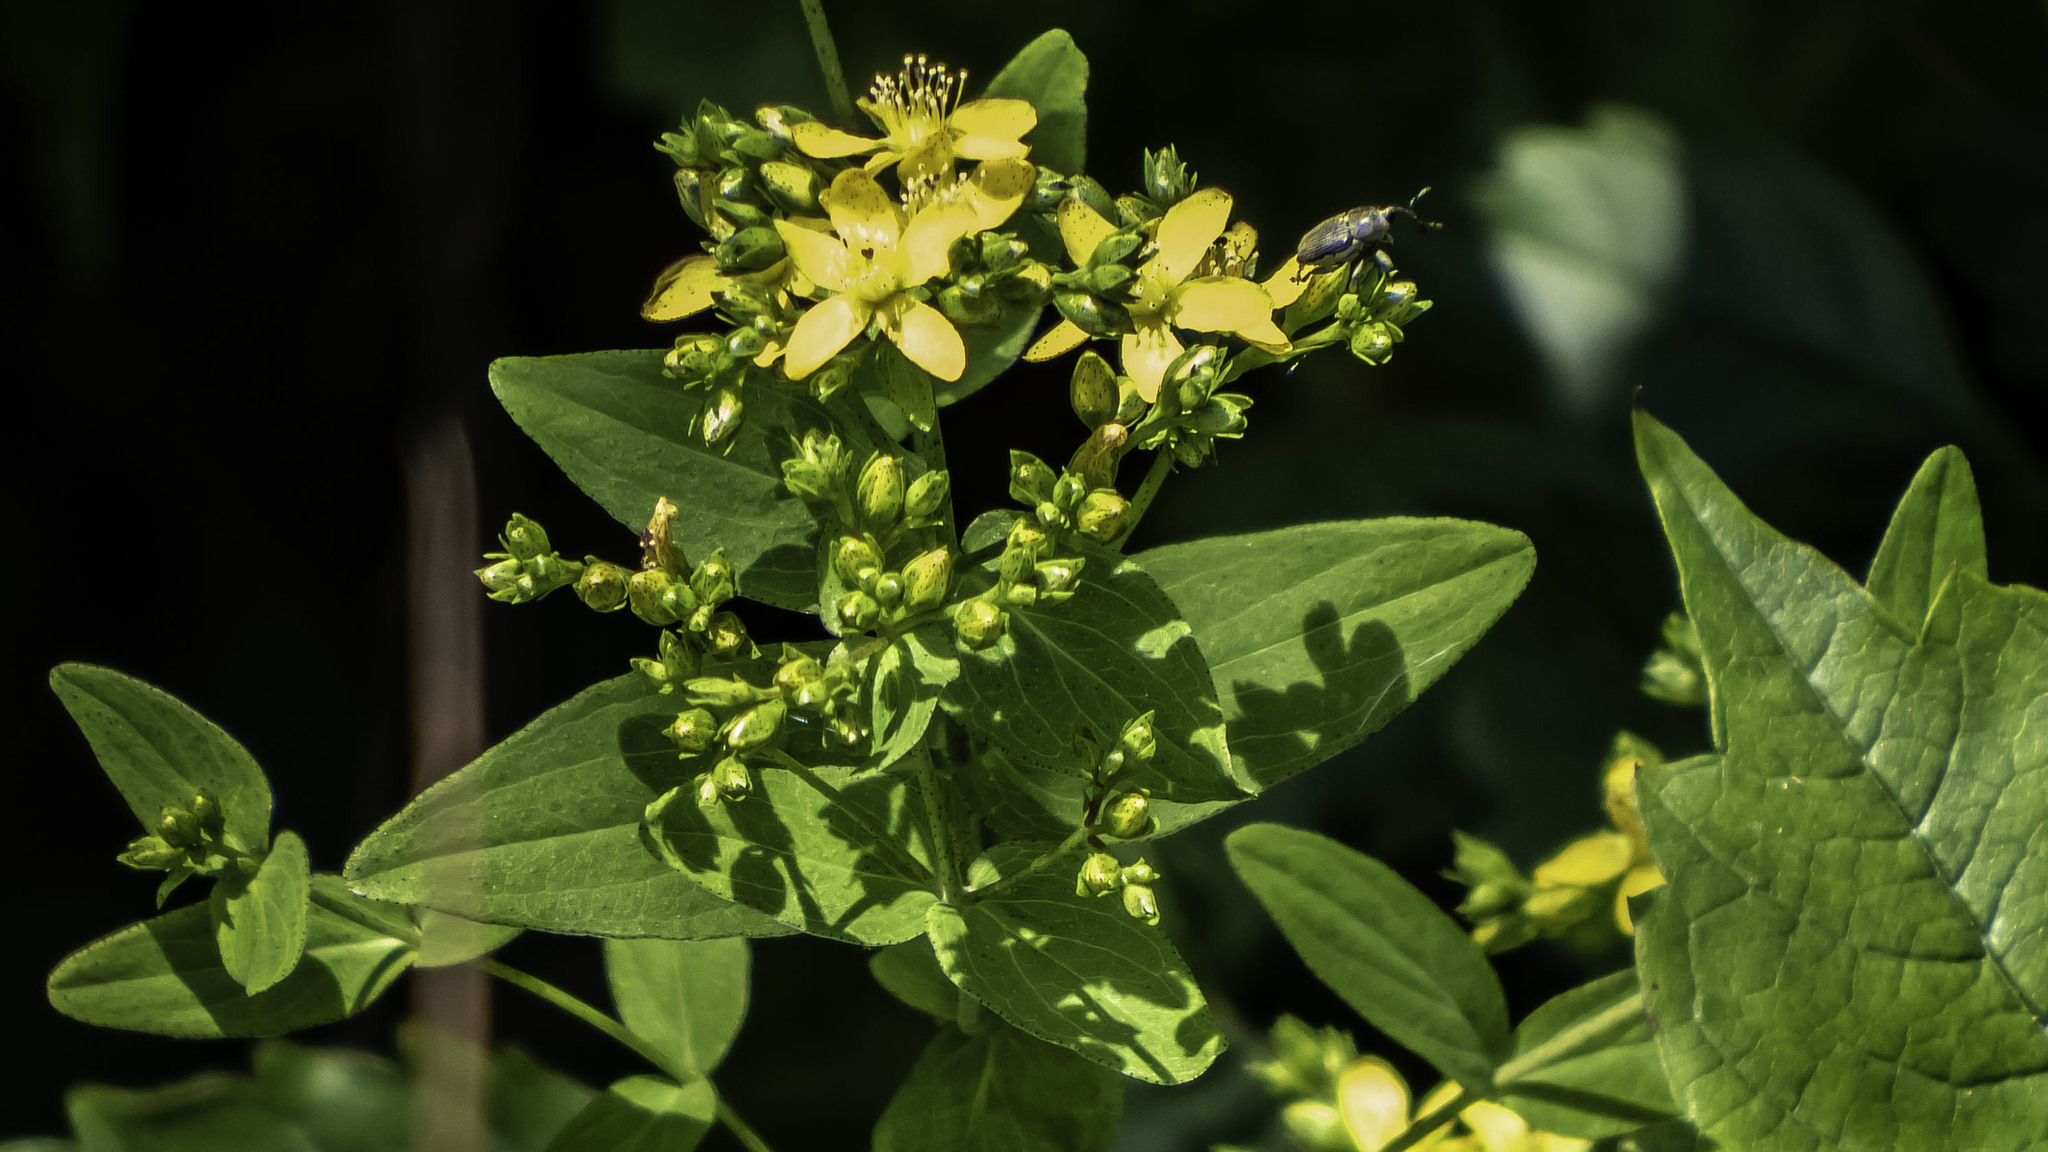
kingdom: Plantae
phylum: Tracheophyta
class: Magnoliopsida
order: Malpighiales
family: Hypericaceae
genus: Hypericum
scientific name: Hypericum punctatum
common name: Spotted st. john's-wort
